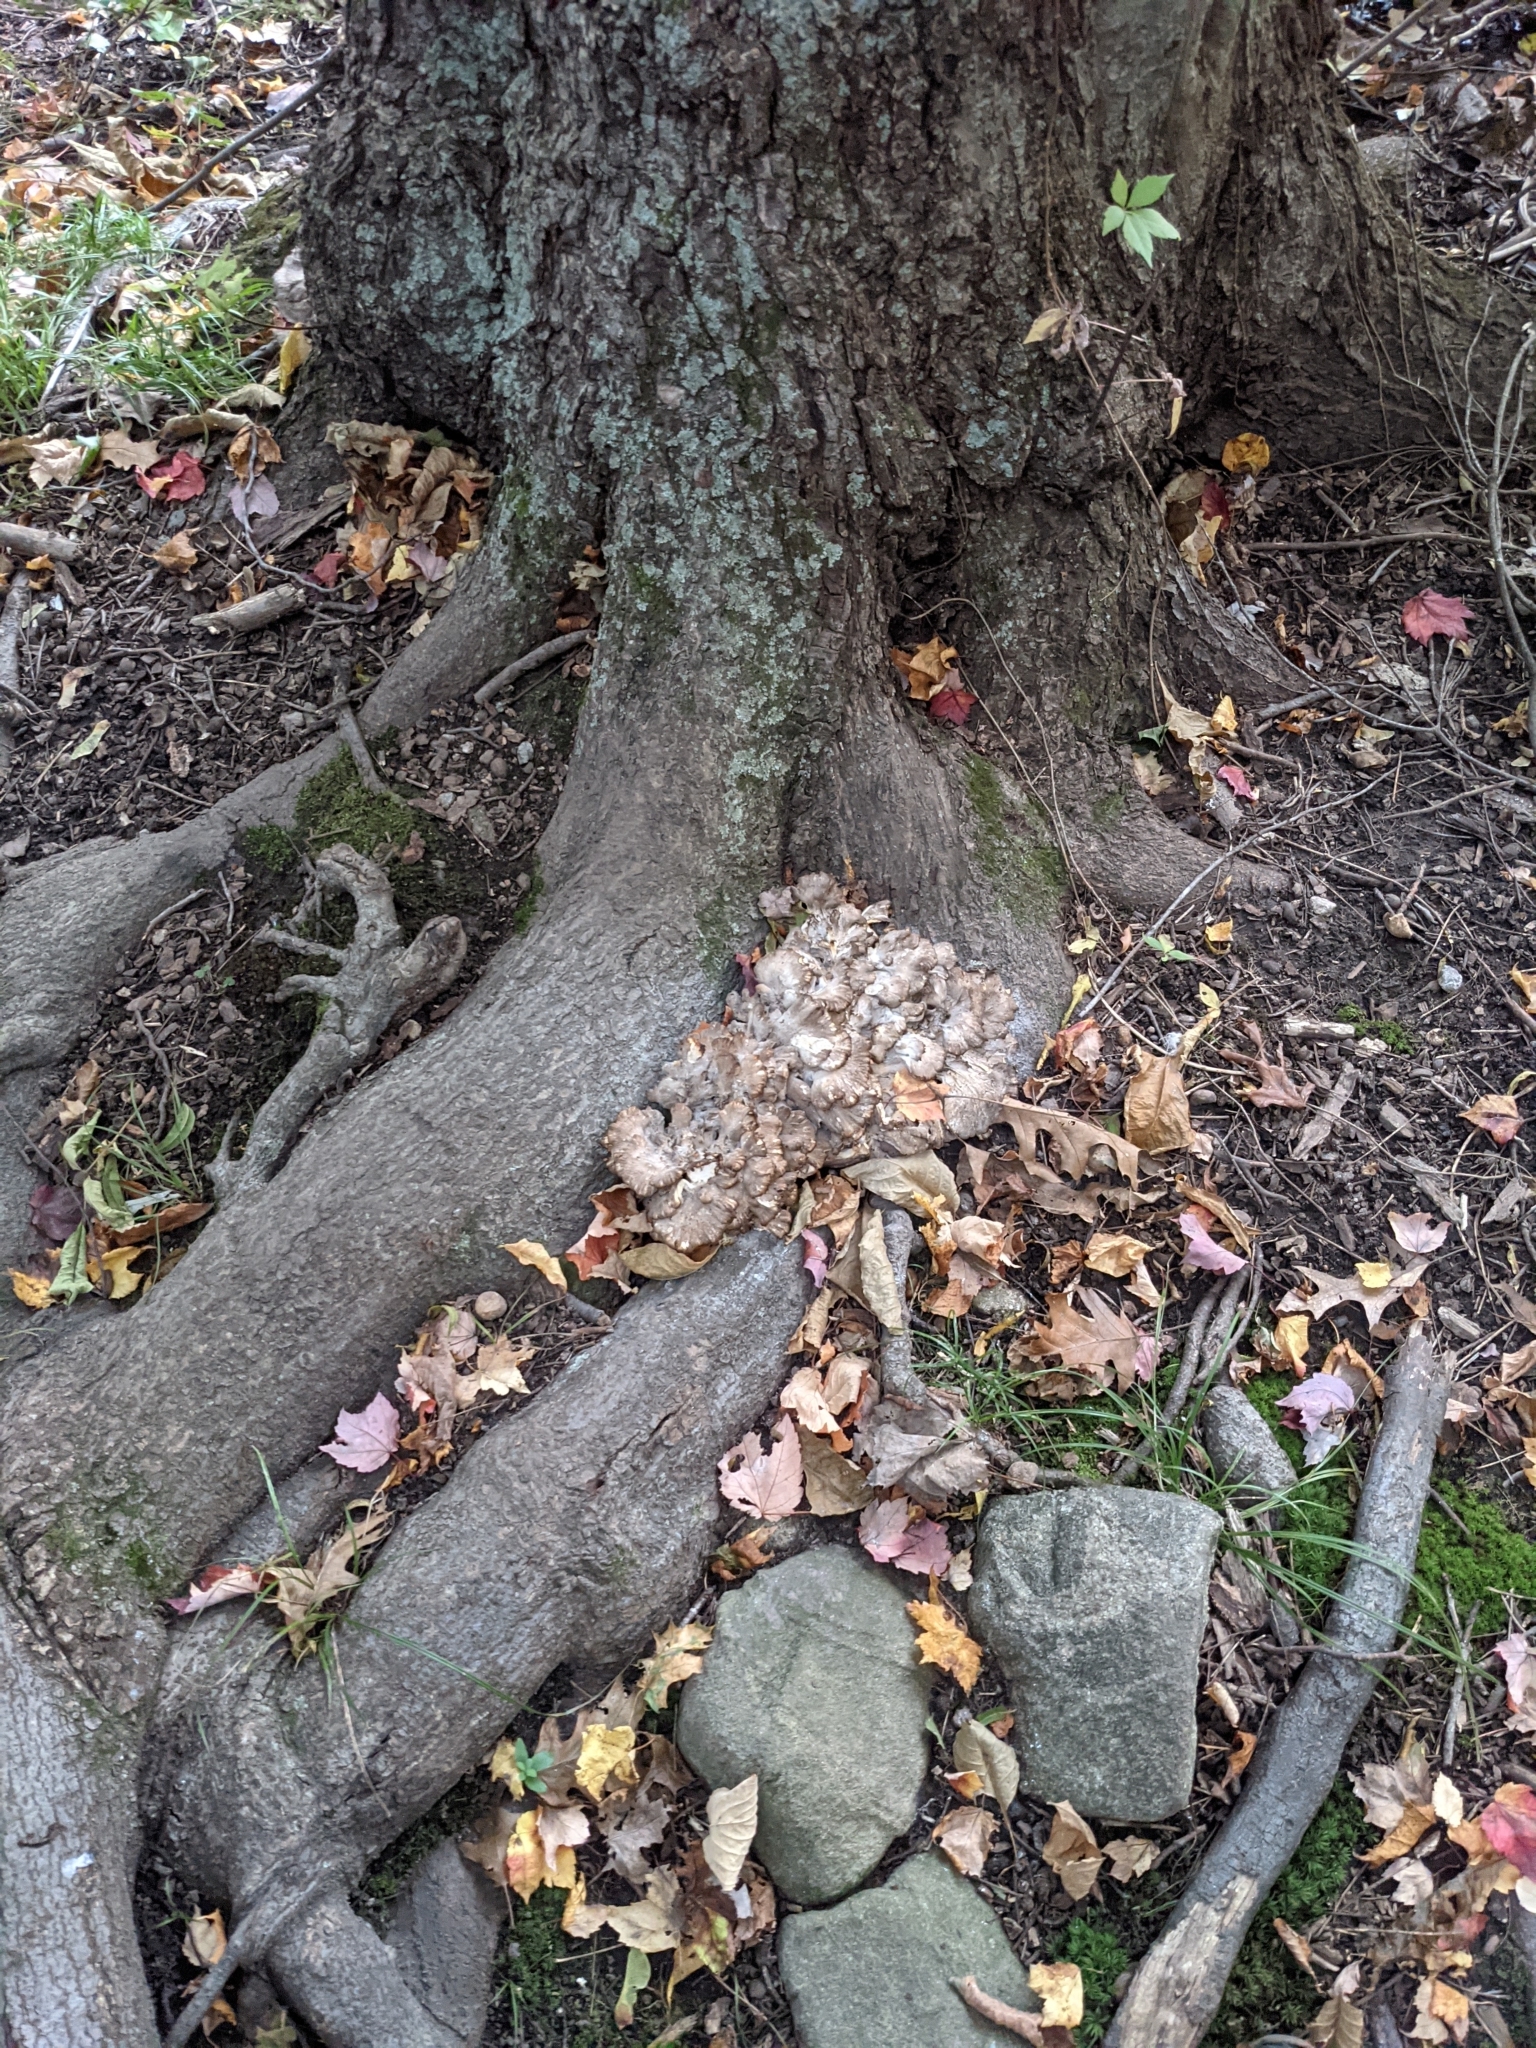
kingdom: Fungi
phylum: Basidiomycota
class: Agaricomycetes
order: Polyporales
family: Grifolaceae
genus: Grifola
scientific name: Grifola frondosa
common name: Hen of the woods
